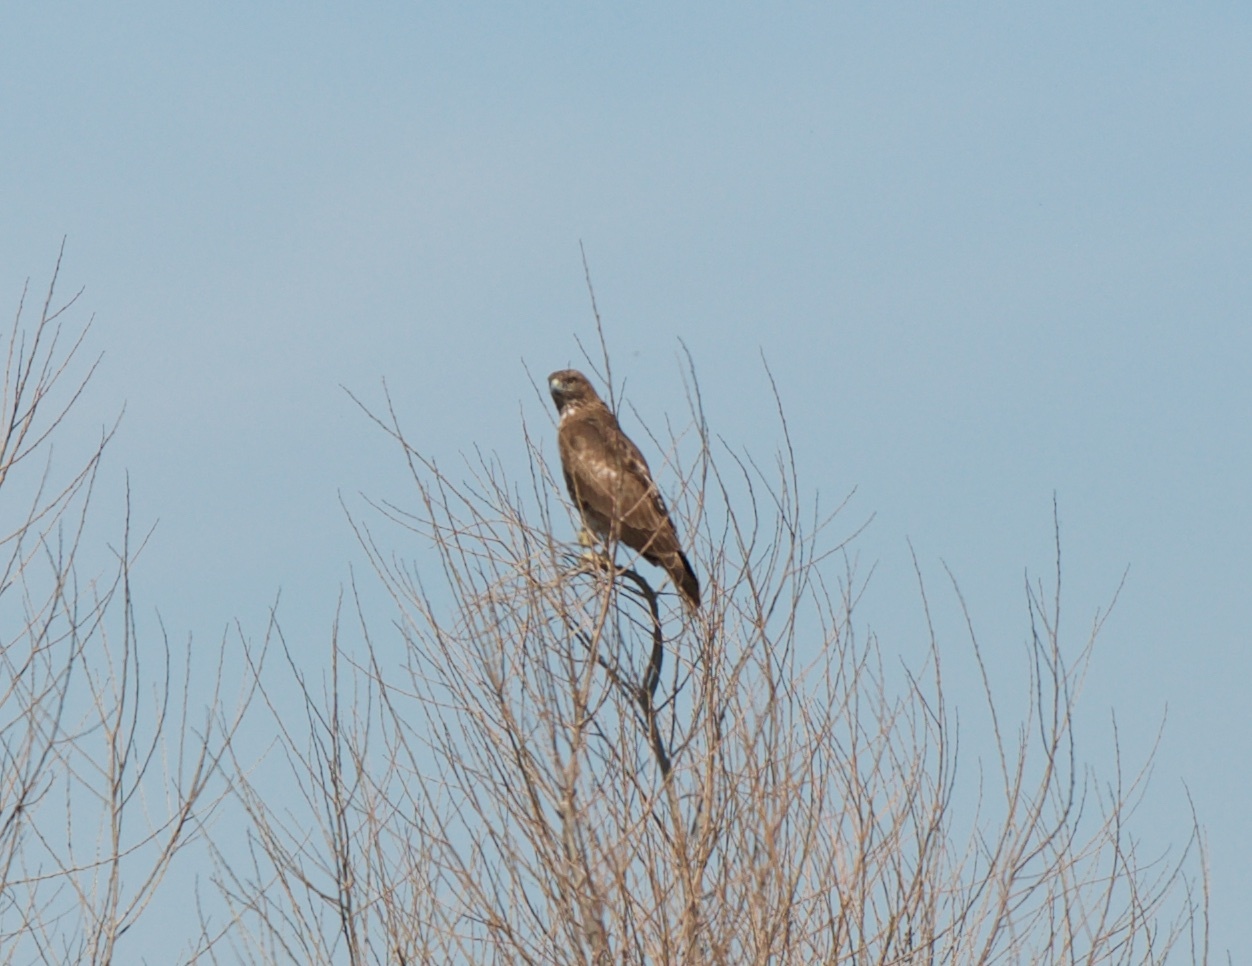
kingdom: Animalia
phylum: Chordata
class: Aves
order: Accipitriformes
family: Accipitridae
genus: Buteo
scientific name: Buteo jamaicensis
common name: Red-tailed hawk
